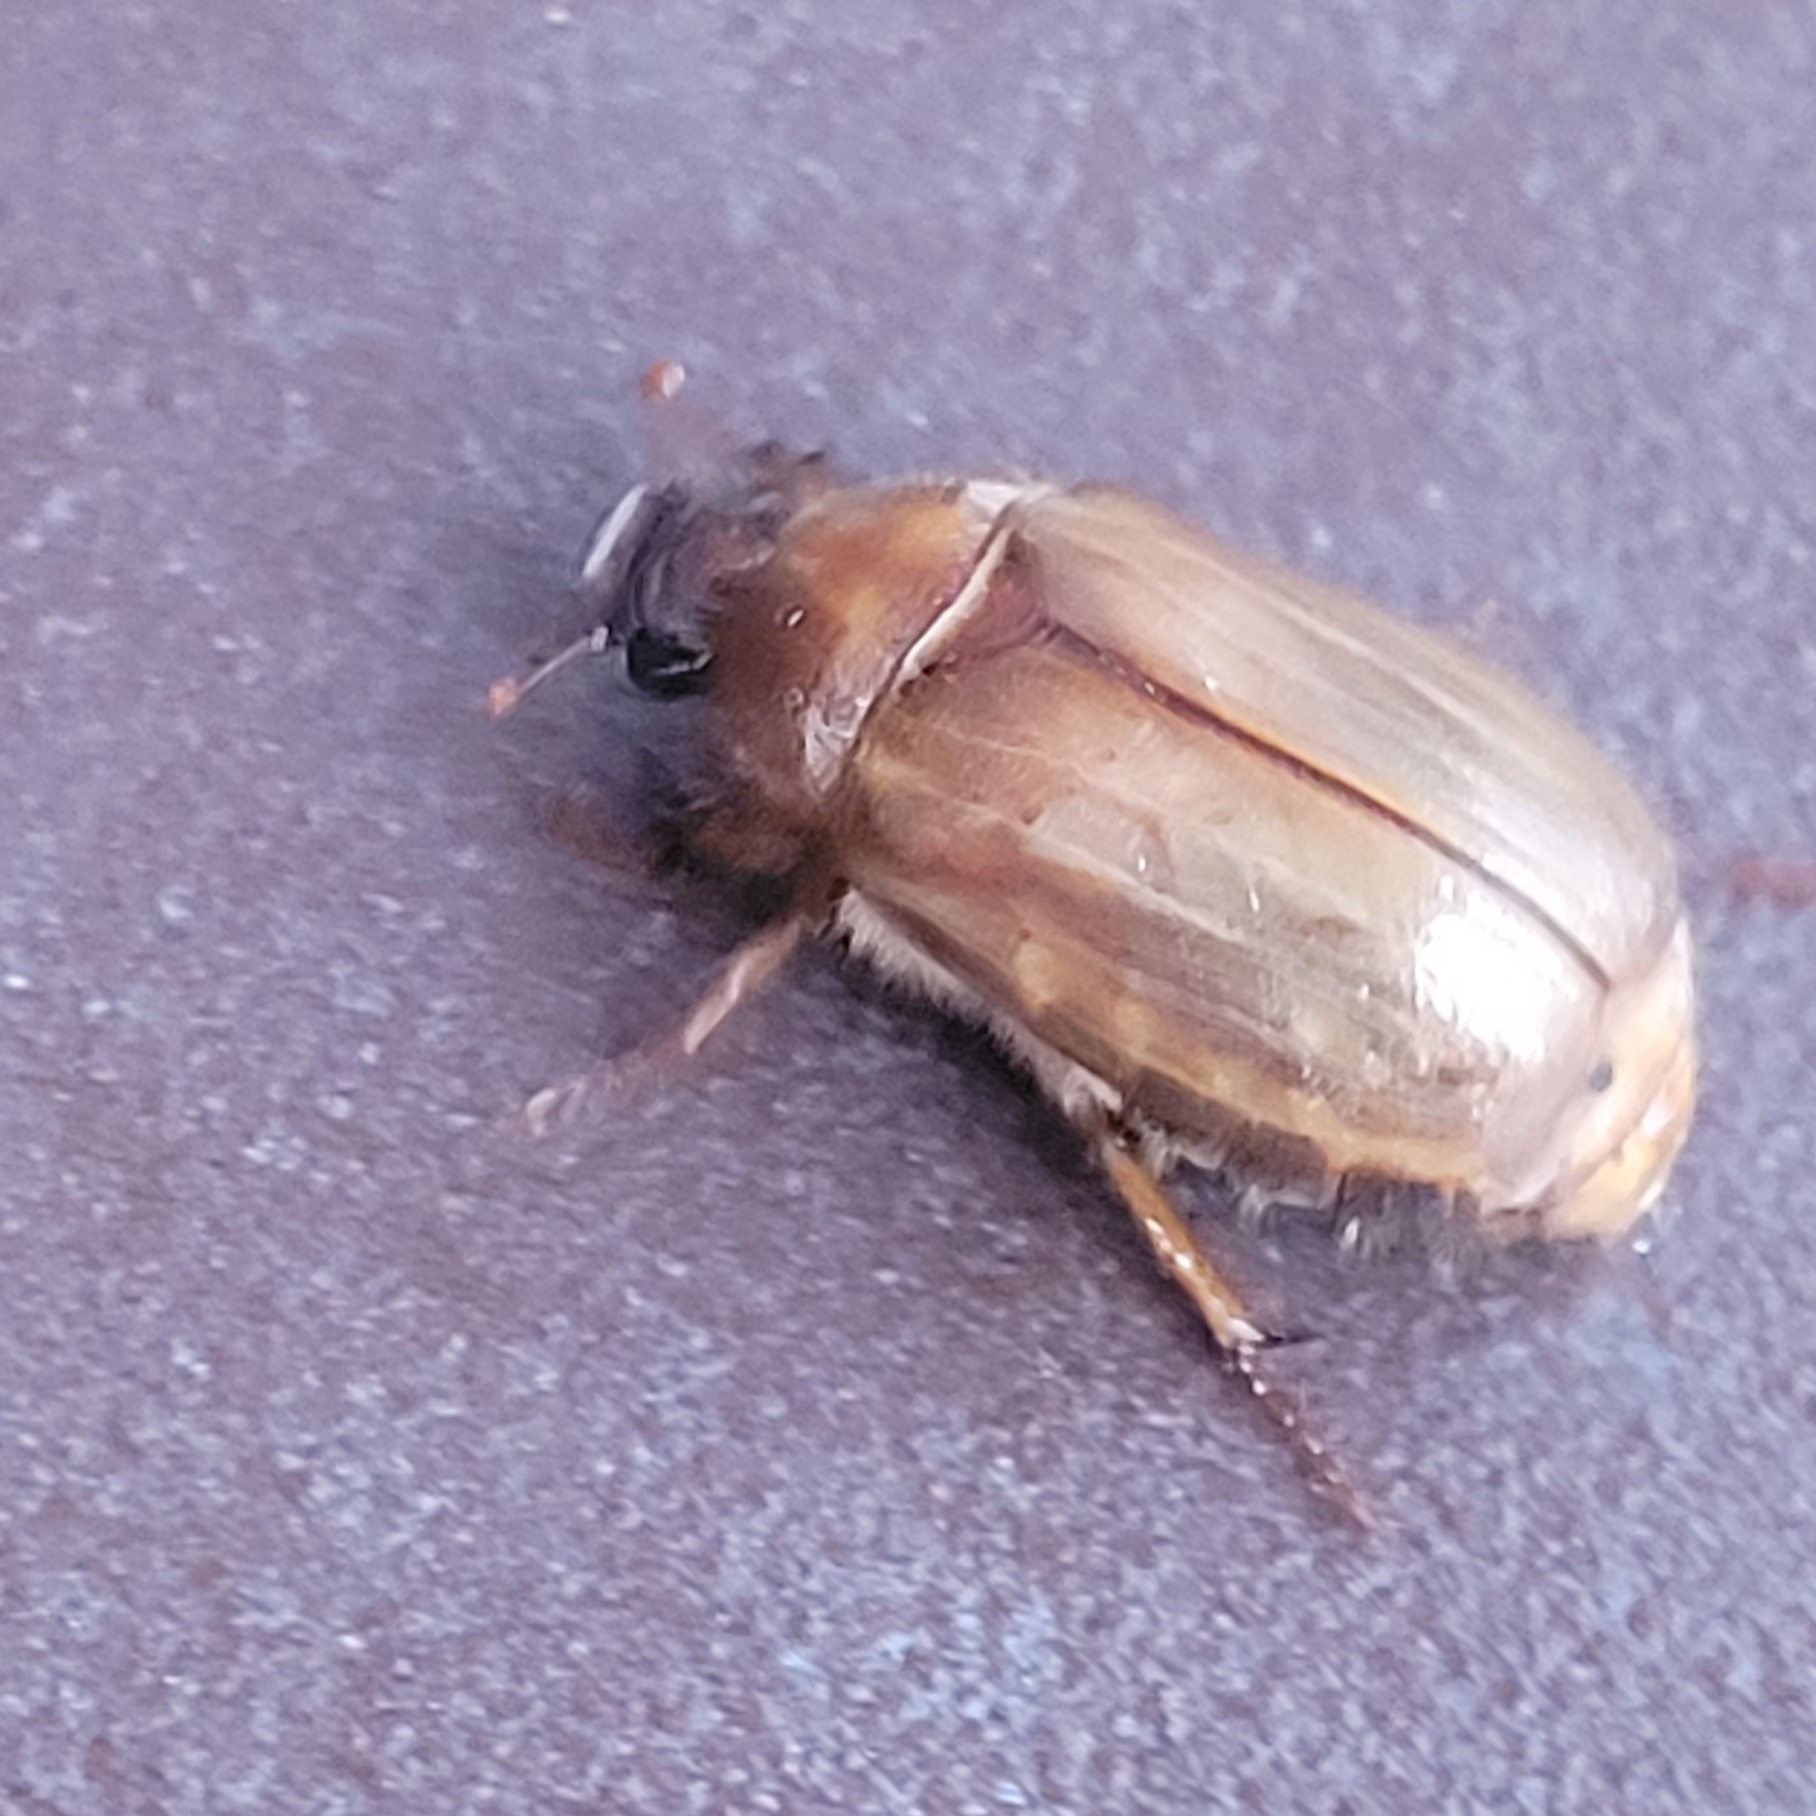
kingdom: Animalia
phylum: Arthropoda
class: Insecta
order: Coleoptera
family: Scarabaeidae
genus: Amphimallon
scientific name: Amphimallon solstitiale
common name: Summer chafer
